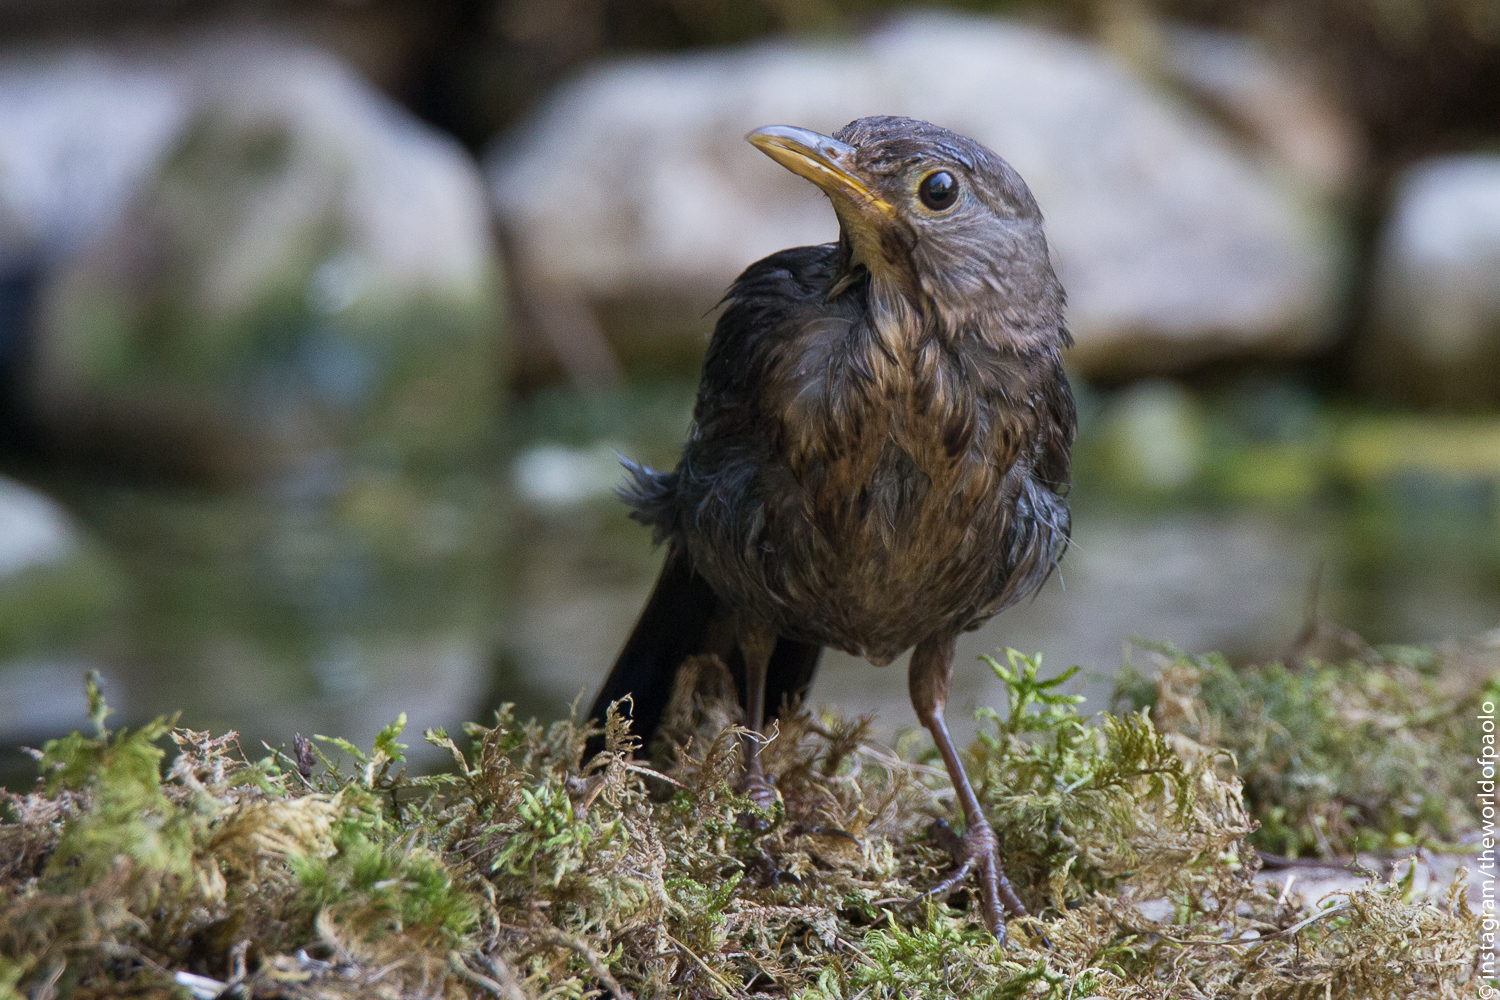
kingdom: Animalia
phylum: Chordata
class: Aves
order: Passeriformes
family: Turdidae
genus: Turdus
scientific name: Turdus merula
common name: Common blackbird
